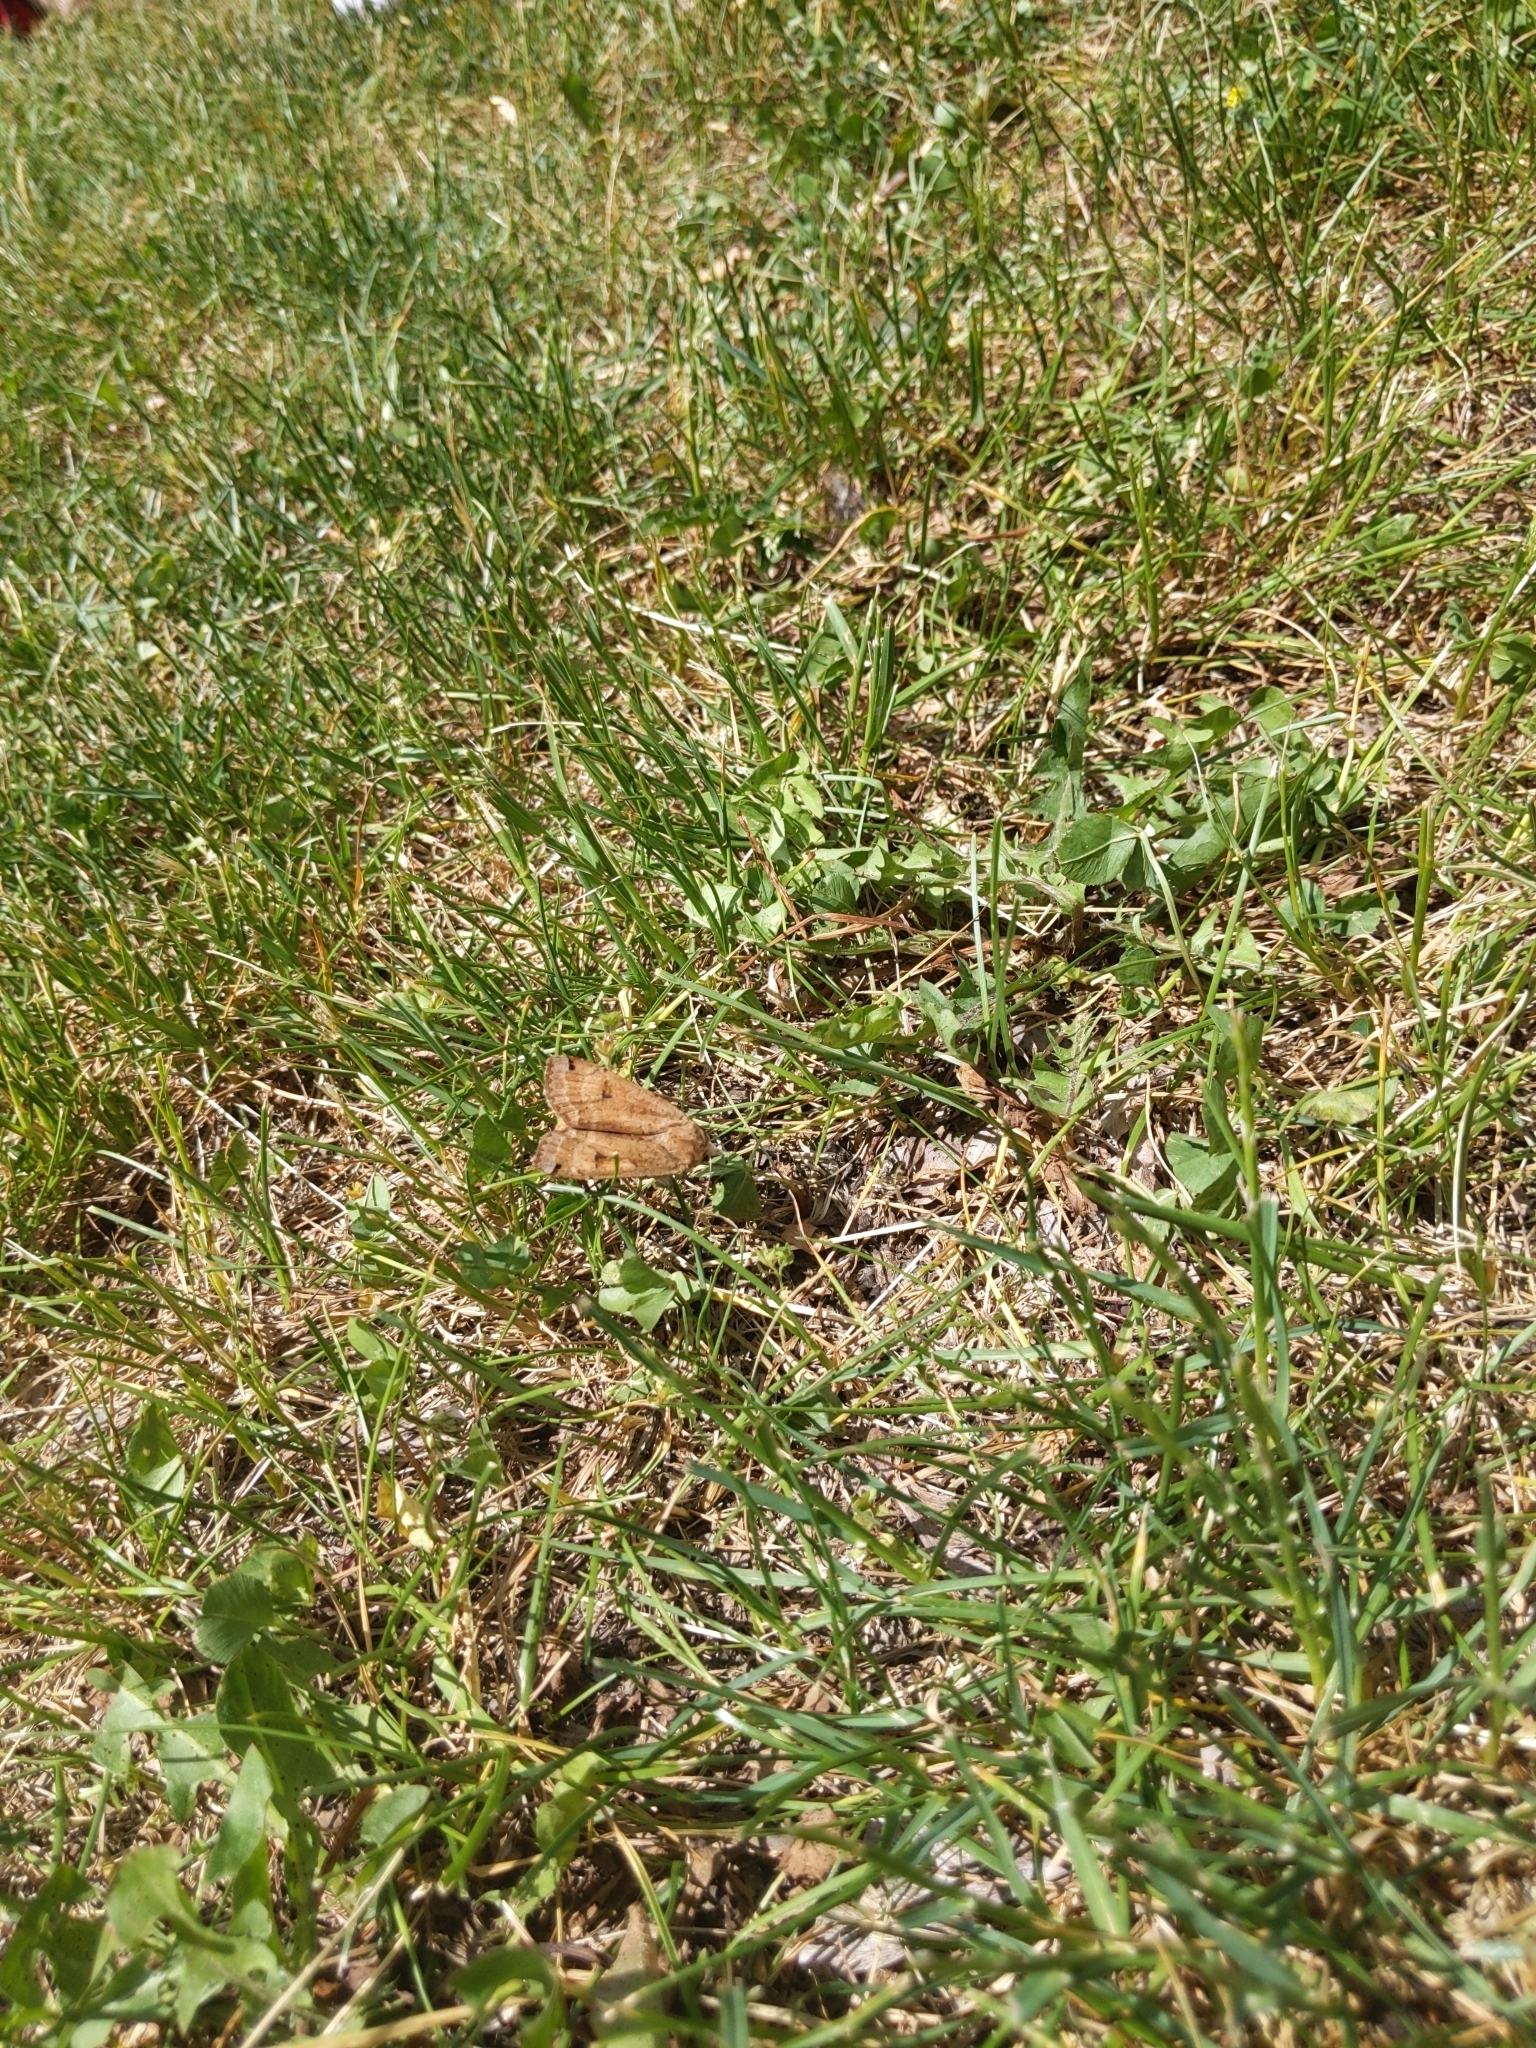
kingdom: Animalia
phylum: Arthropoda
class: Insecta
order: Lepidoptera
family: Noctuidae
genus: Noctua
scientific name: Noctua pronuba
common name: Large yellow underwing
